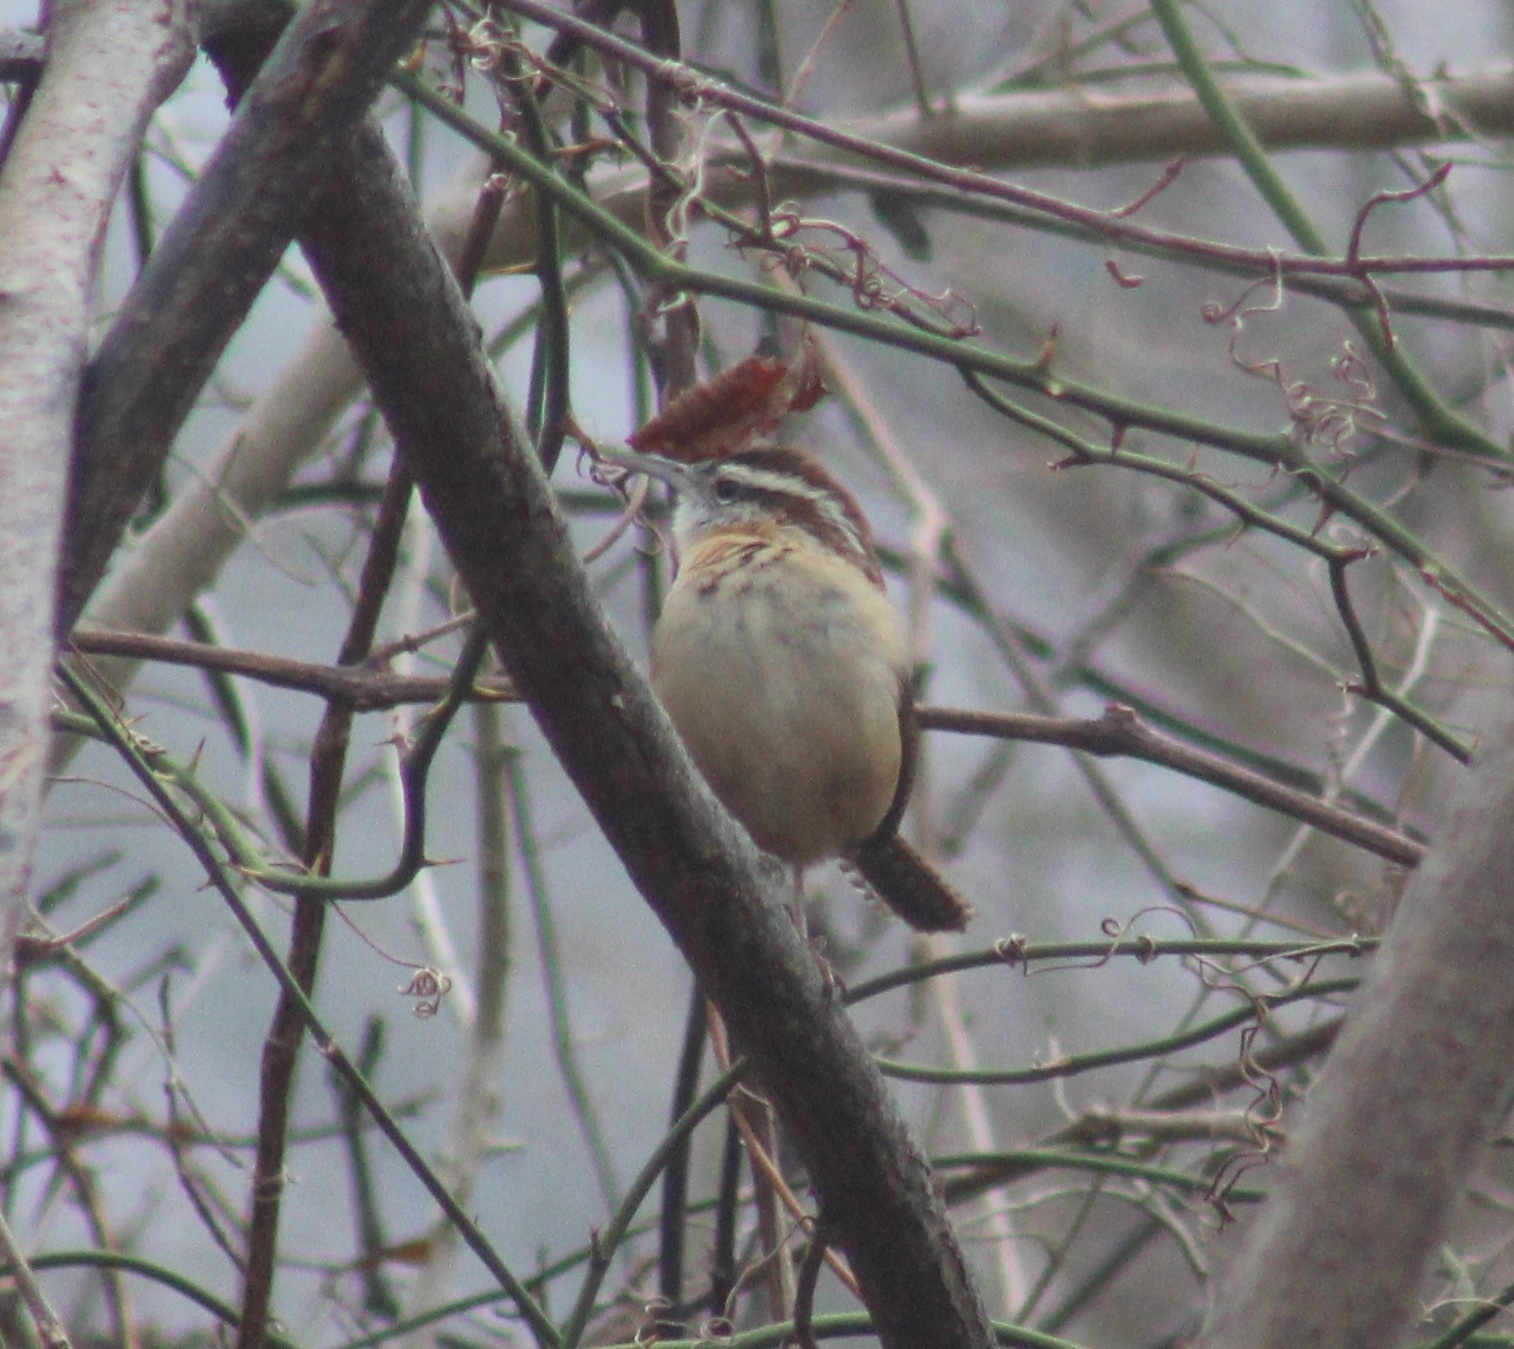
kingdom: Animalia
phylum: Chordata
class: Aves
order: Passeriformes
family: Troglodytidae
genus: Thryothorus
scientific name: Thryothorus ludovicianus
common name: Carolina wren
